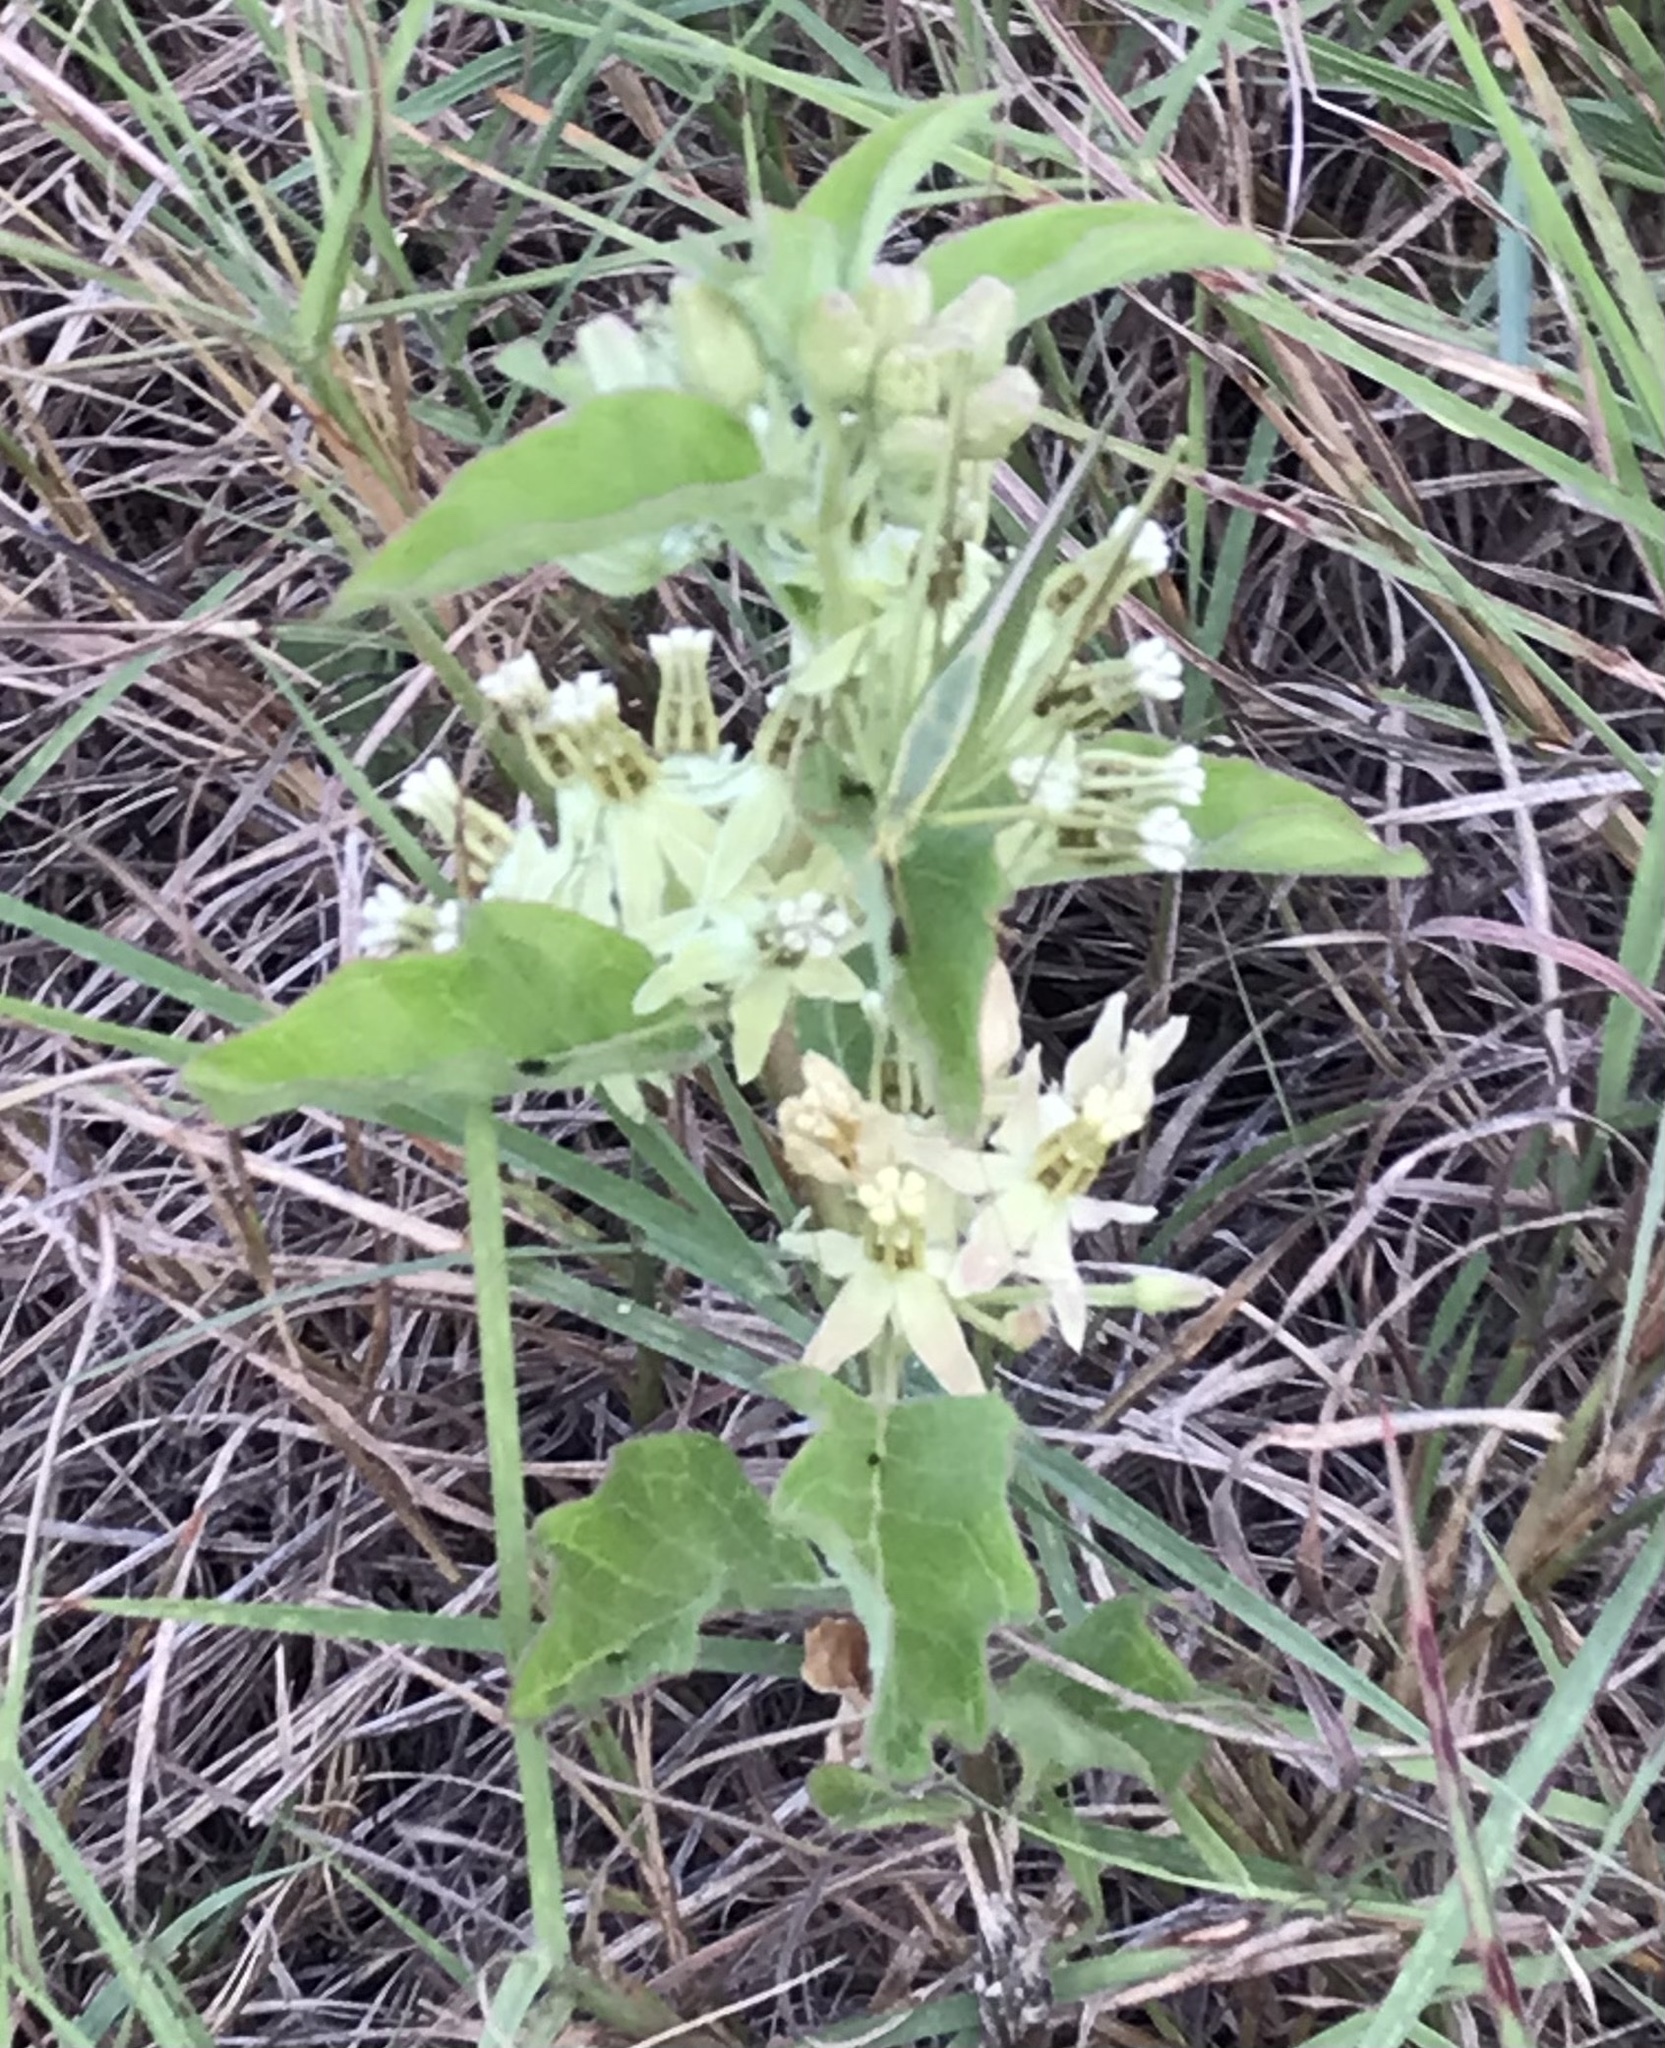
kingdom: Plantae
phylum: Tracheophyta
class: Magnoliopsida
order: Gentianales
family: Apocynaceae
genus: Asclepias
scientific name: Asclepias oenotheroides
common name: Zizotes milkweed
